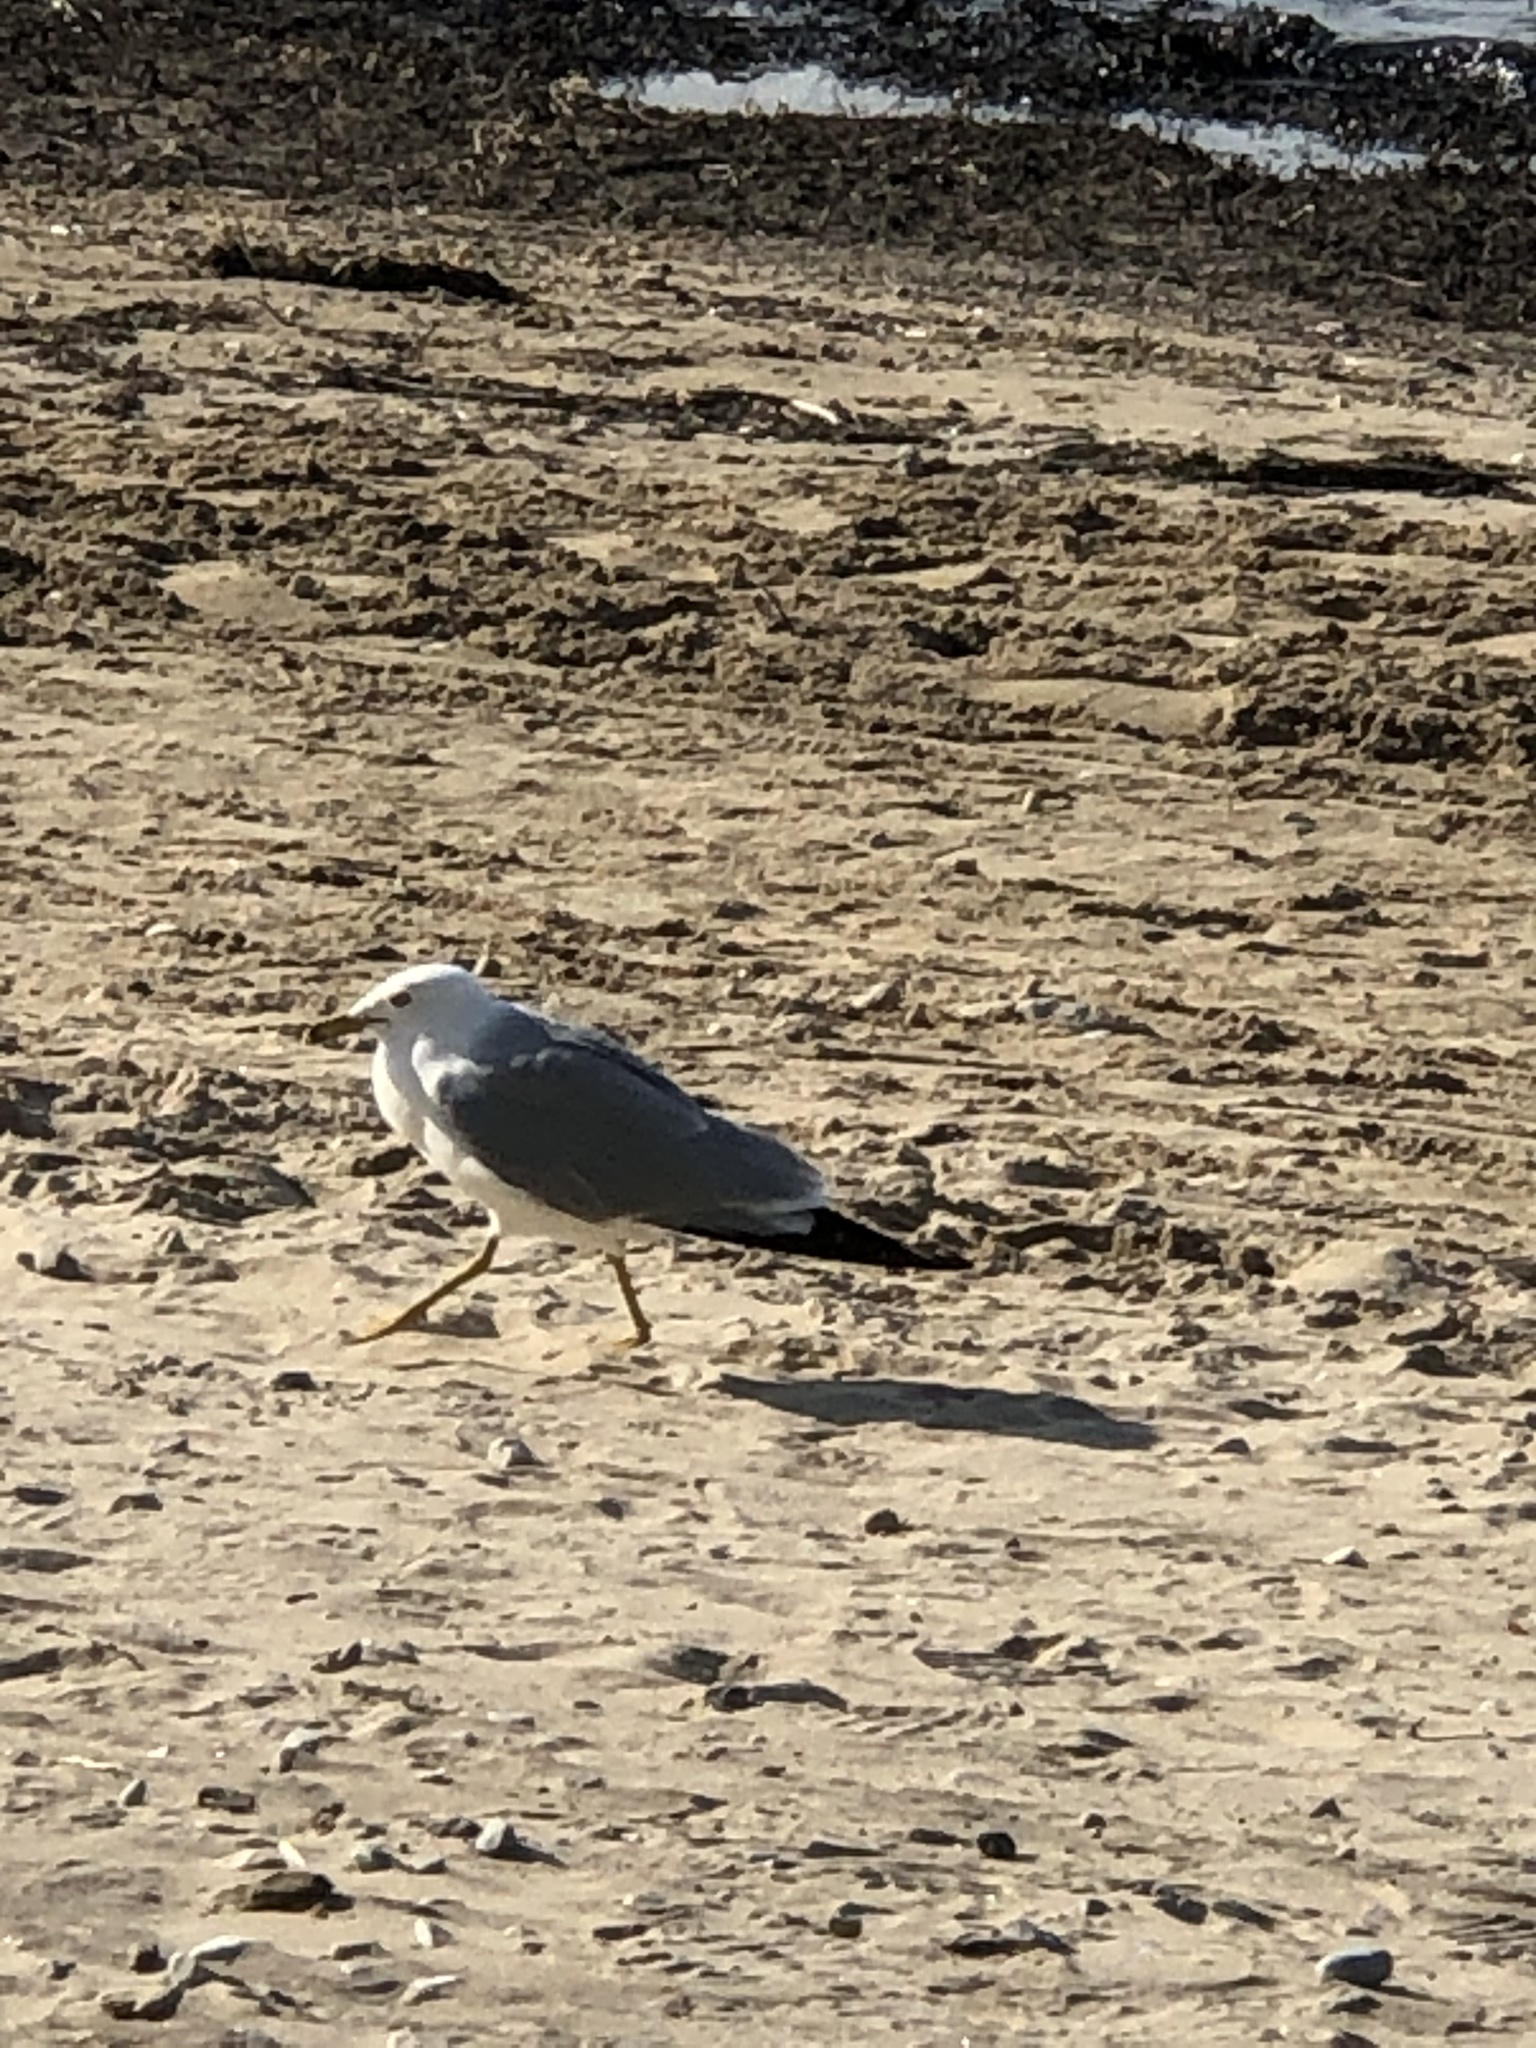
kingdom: Animalia
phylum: Chordata
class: Aves
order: Charadriiformes
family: Laridae
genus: Larus
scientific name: Larus delawarensis
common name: Ring-billed gull
